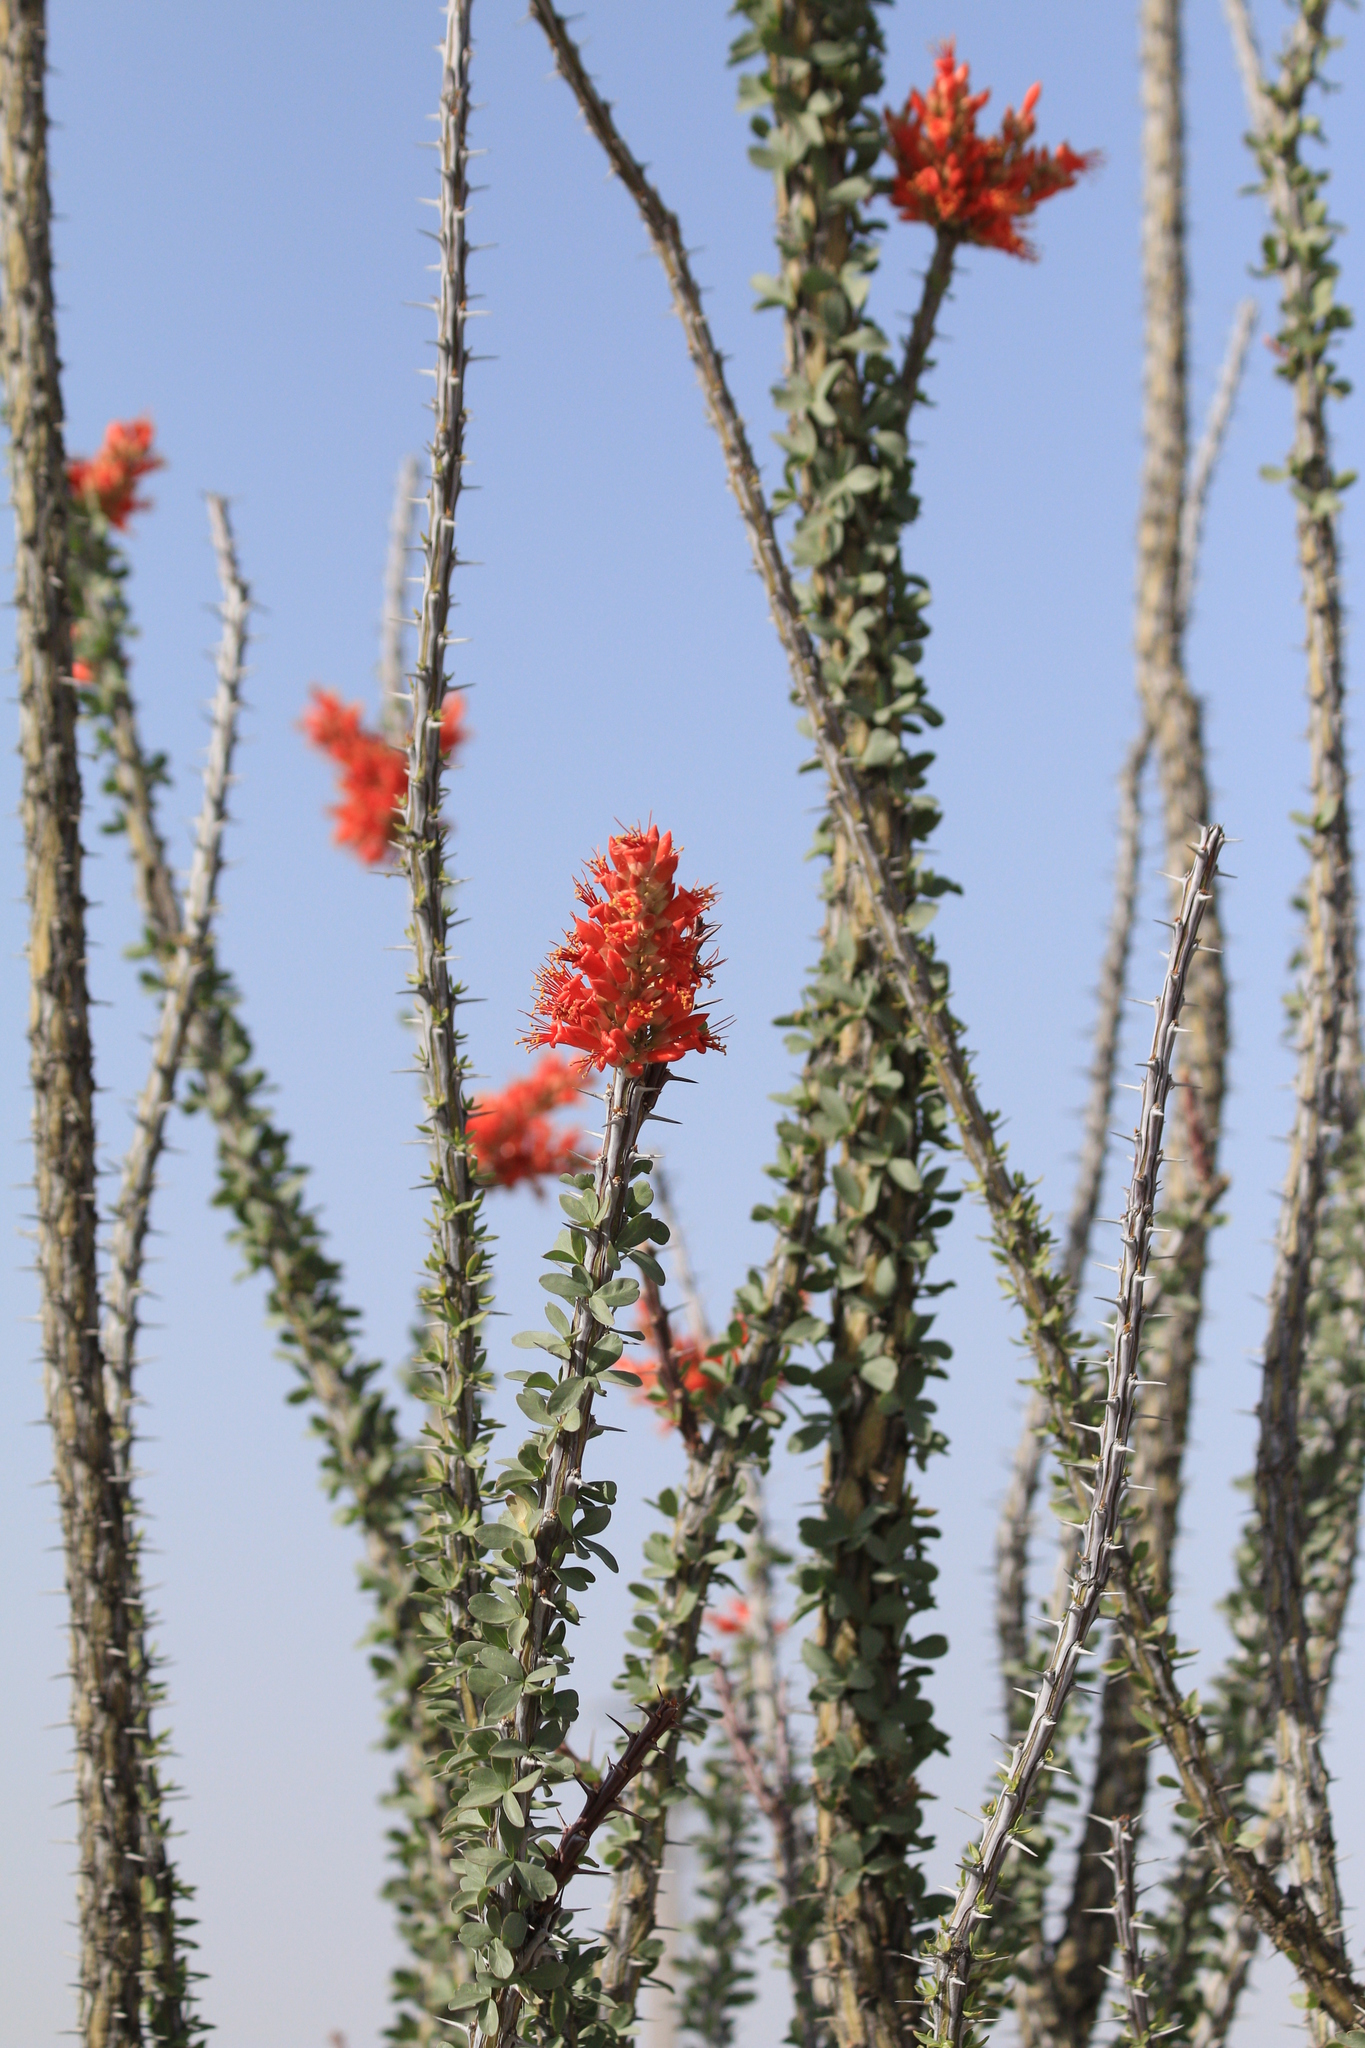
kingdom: Plantae
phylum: Tracheophyta
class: Magnoliopsida
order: Ericales
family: Fouquieriaceae
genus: Fouquieria
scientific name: Fouquieria splendens
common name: Vine-cactus
